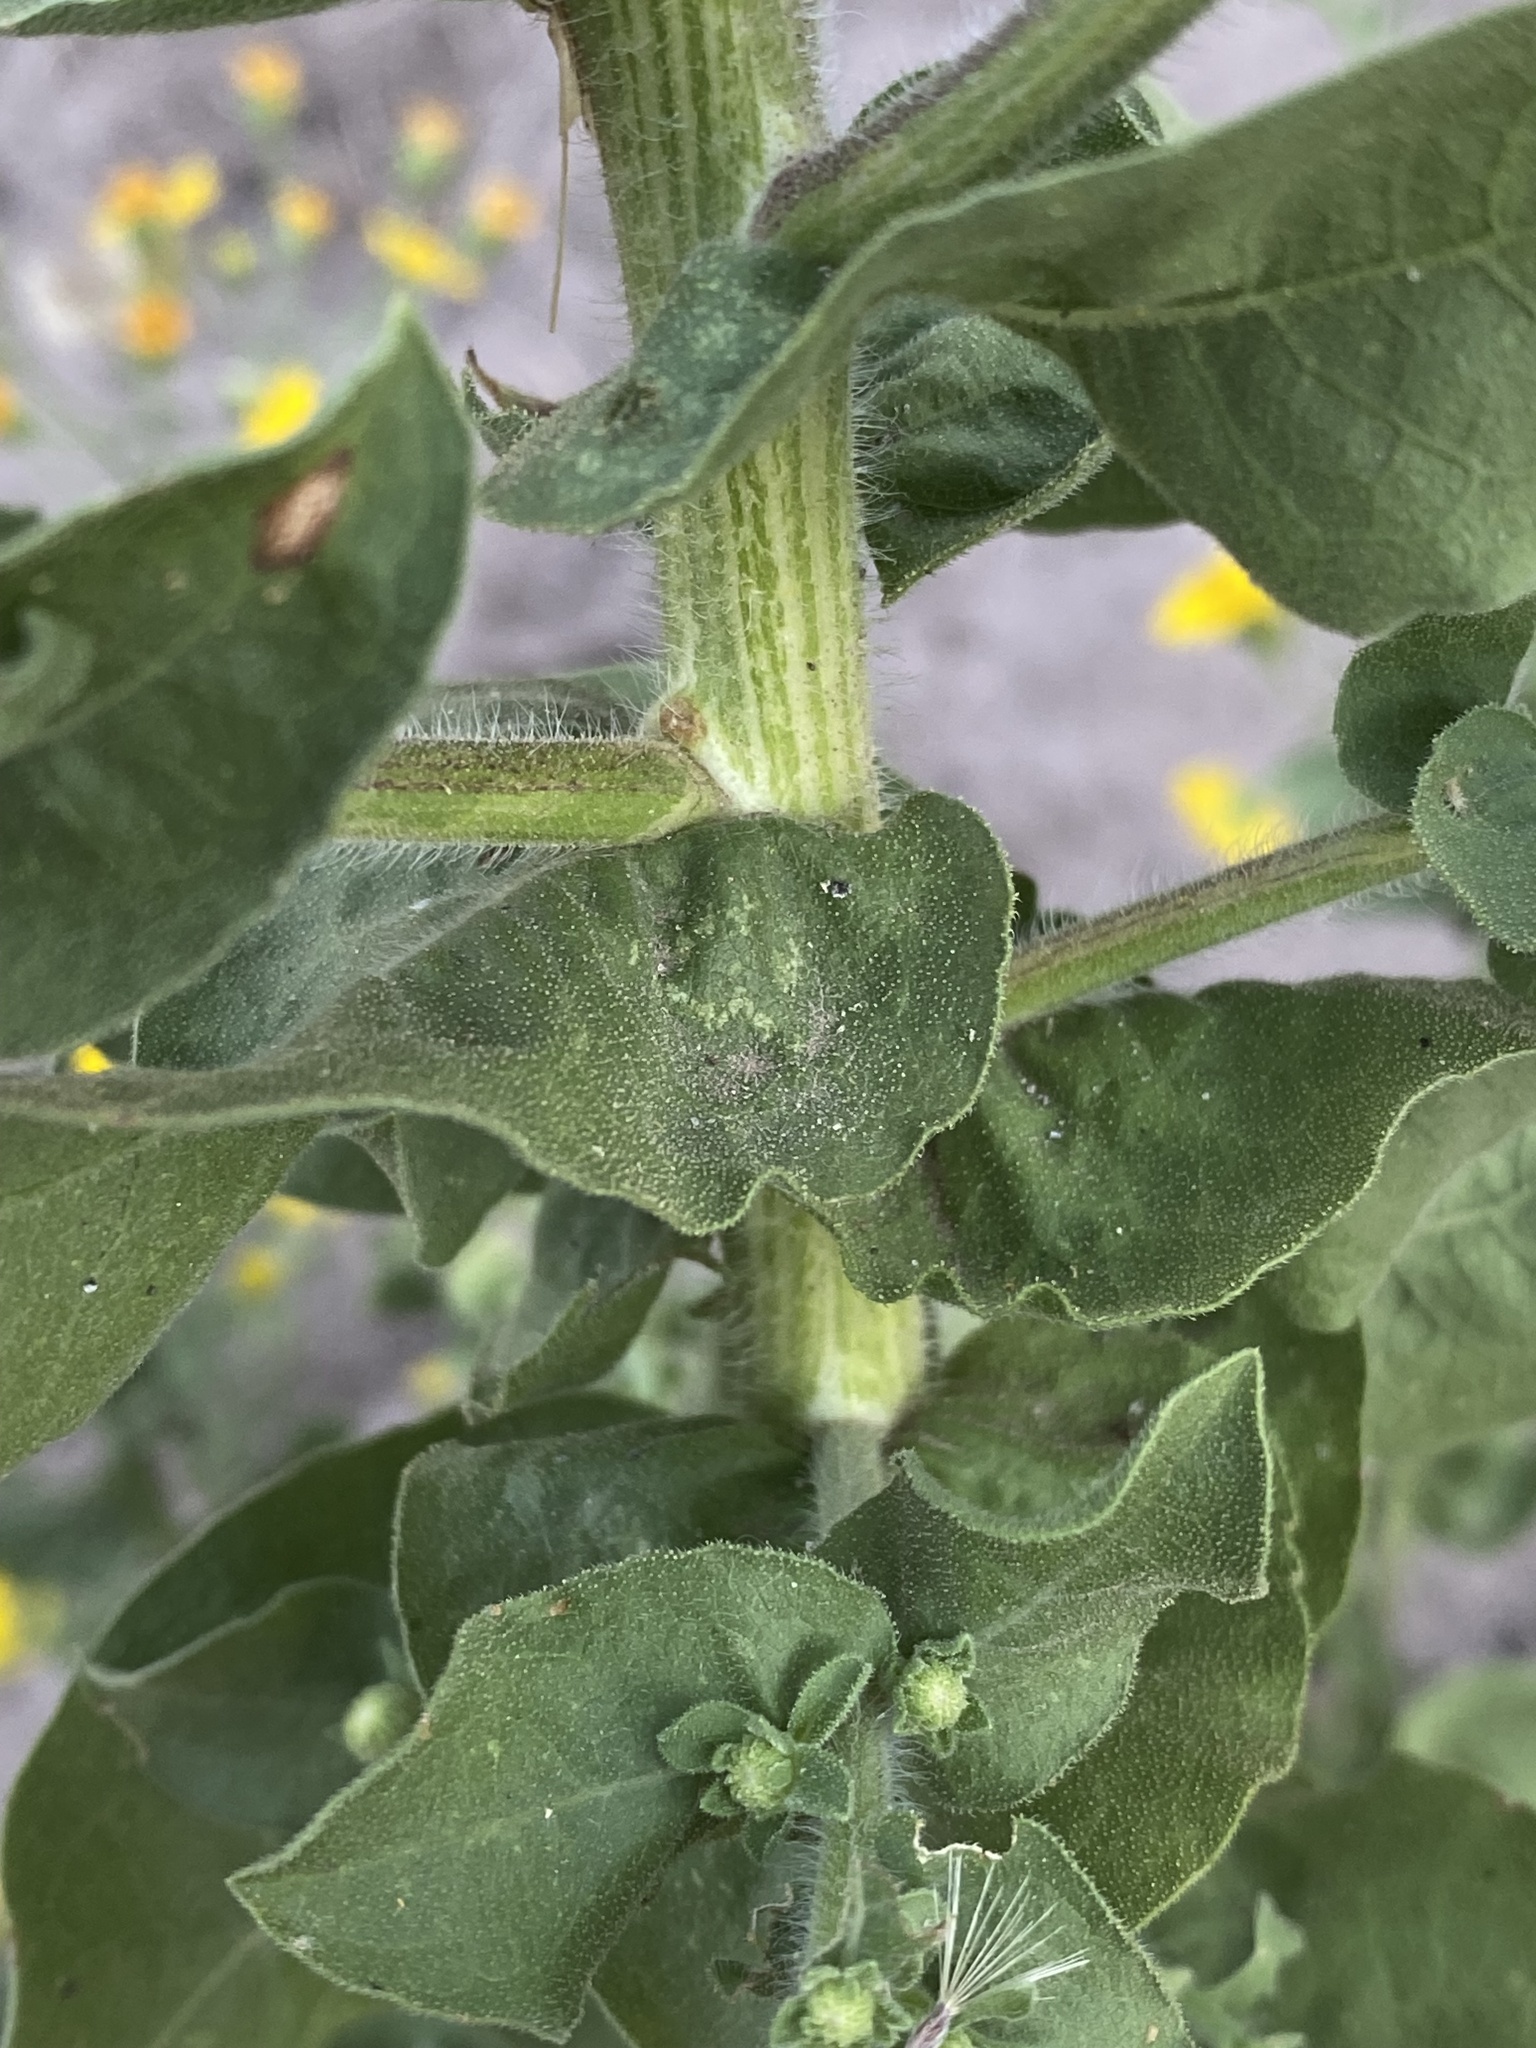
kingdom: Plantae
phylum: Tracheophyta
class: Magnoliopsida
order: Asterales
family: Asteraceae
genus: Heterotheca
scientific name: Heterotheca subaxillaris
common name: Camphorweed
